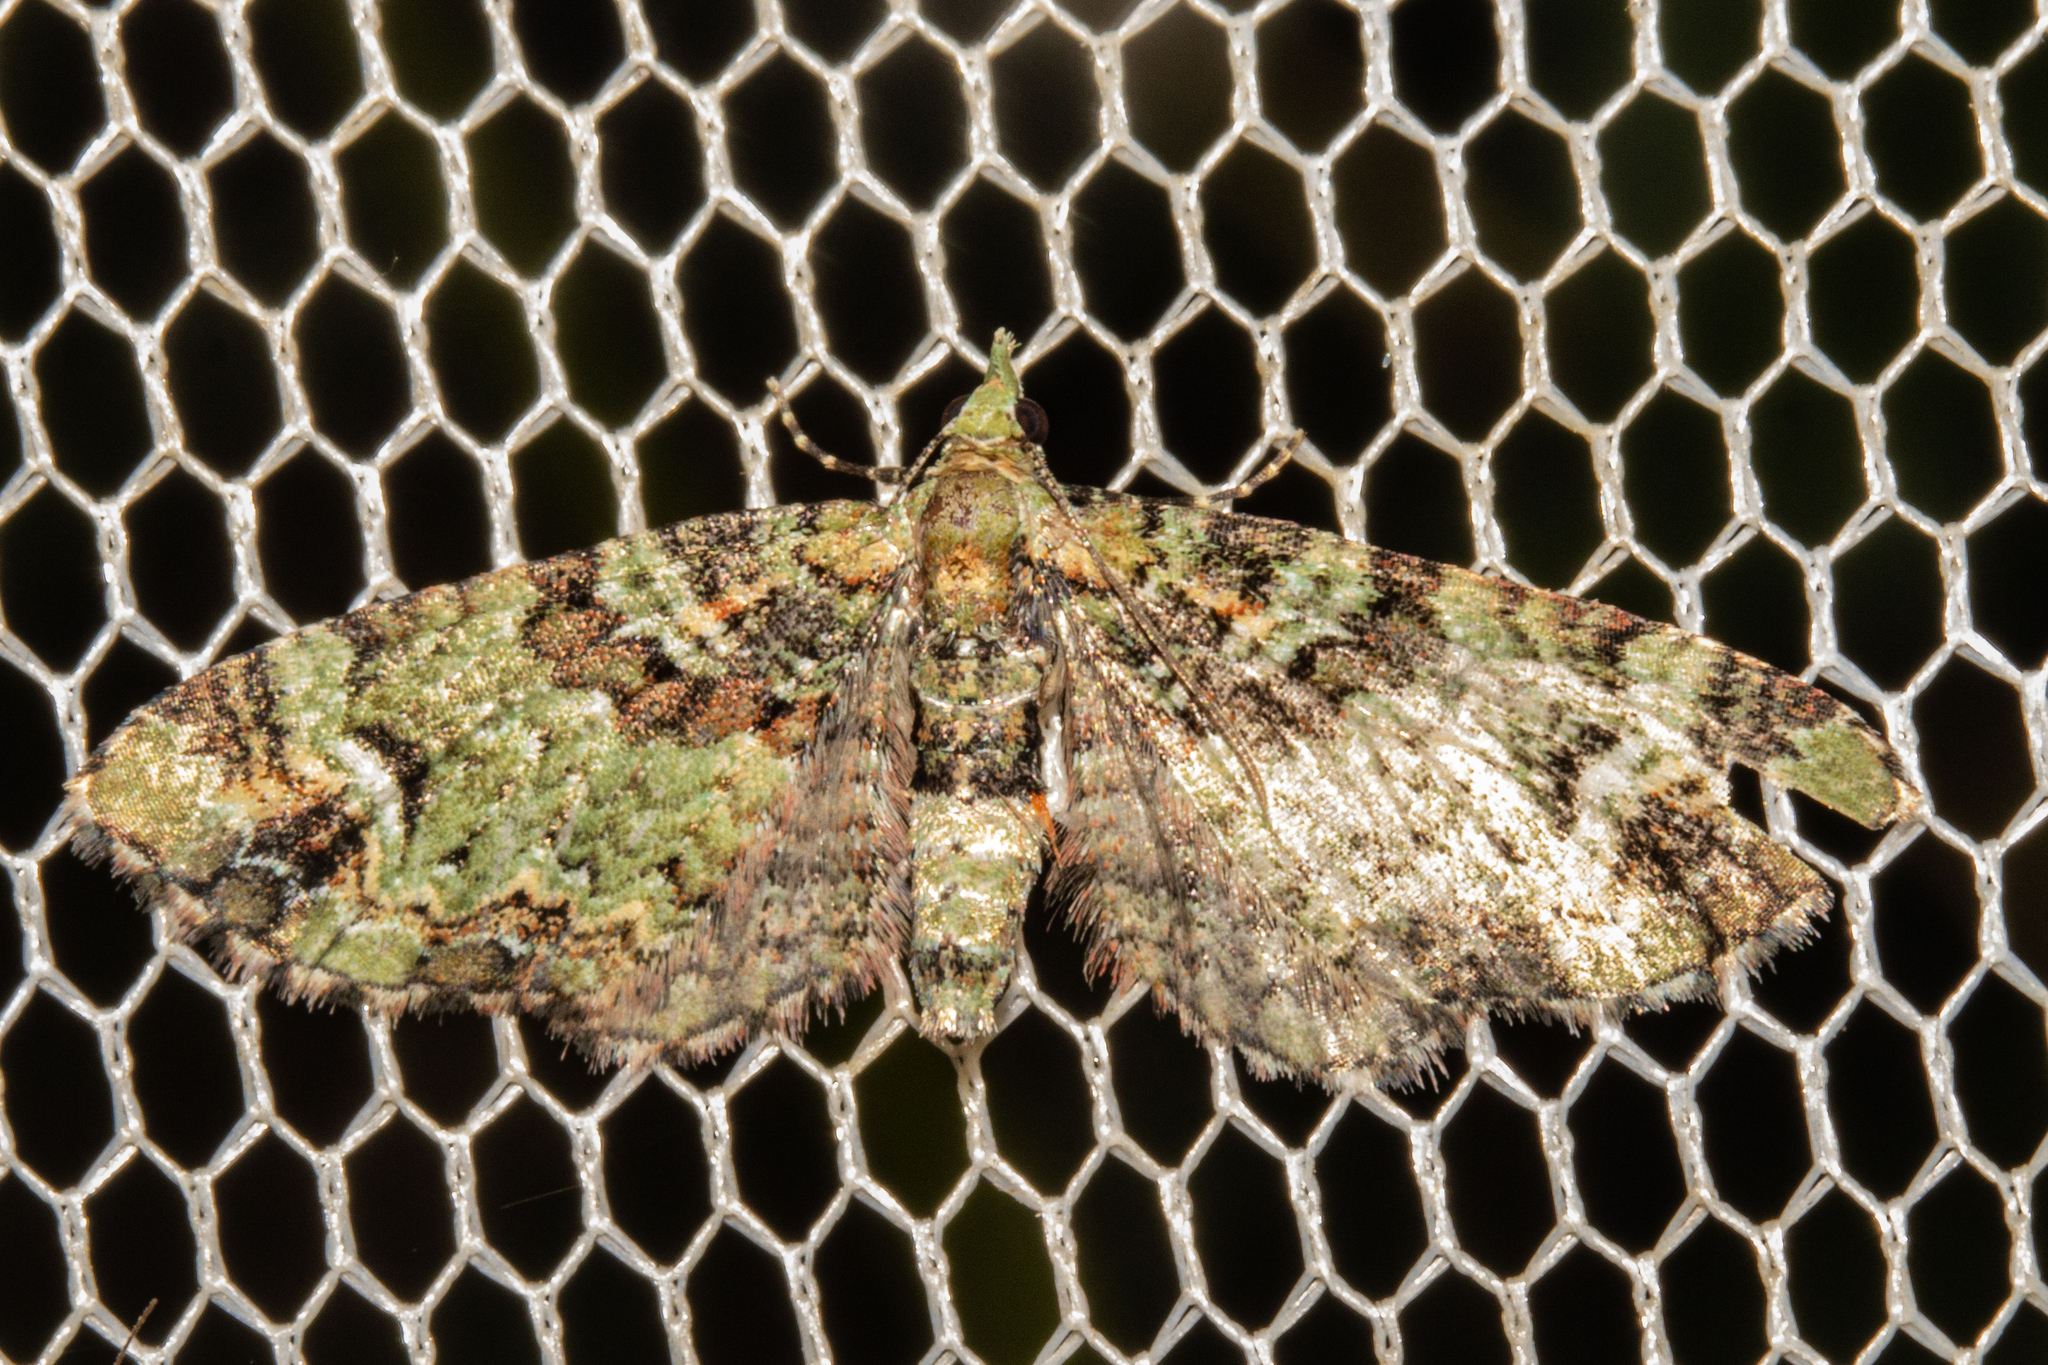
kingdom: Animalia
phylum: Arthropoda
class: Insecta
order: Lepidoptera
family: Geometridae
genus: Pasiphila
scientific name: Pasiphila bilineolata
